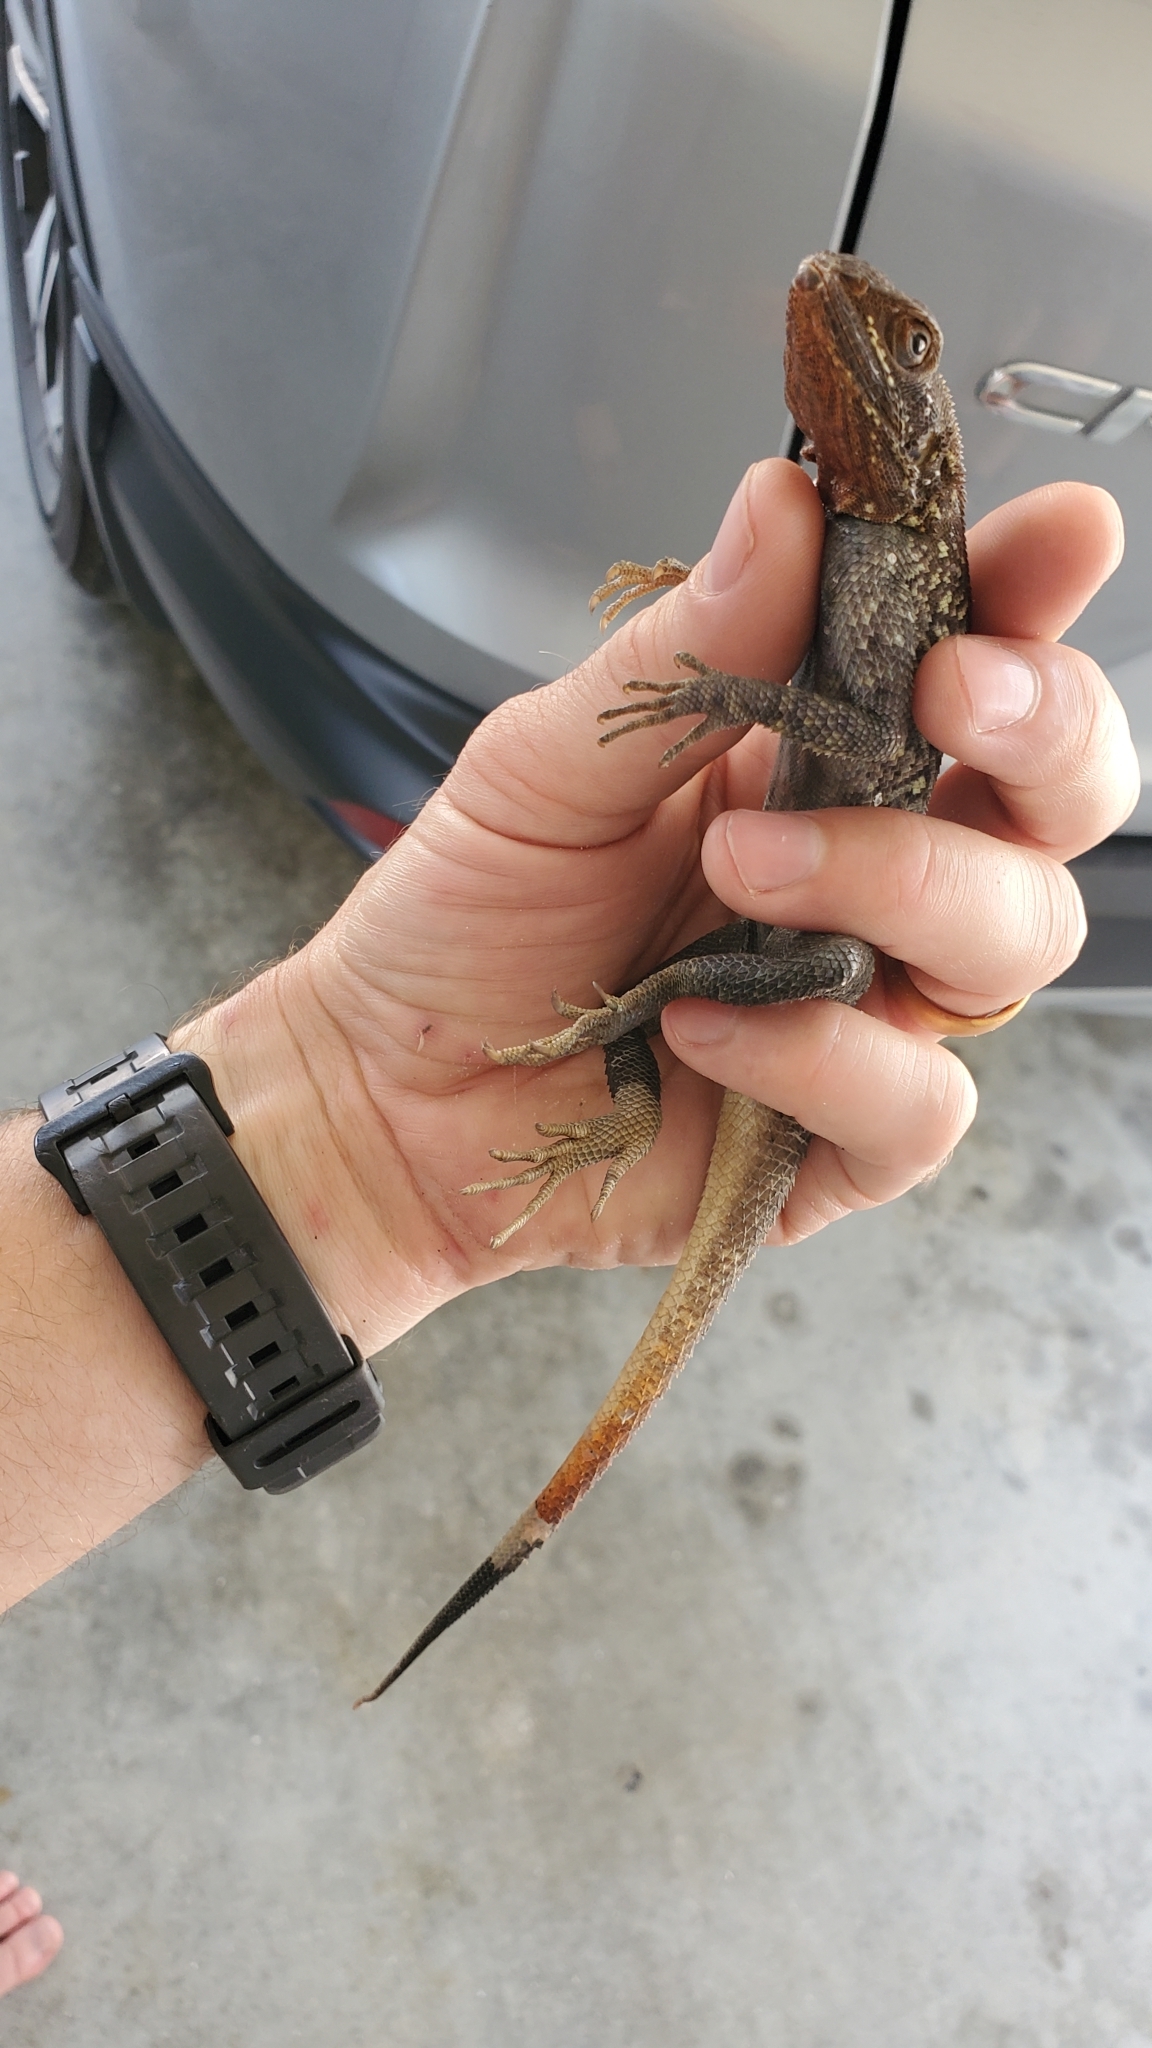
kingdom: Animalia
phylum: Chordata
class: Squamata
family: Agamidae
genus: Agama
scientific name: Agama picticauda
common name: Red-headed agama
